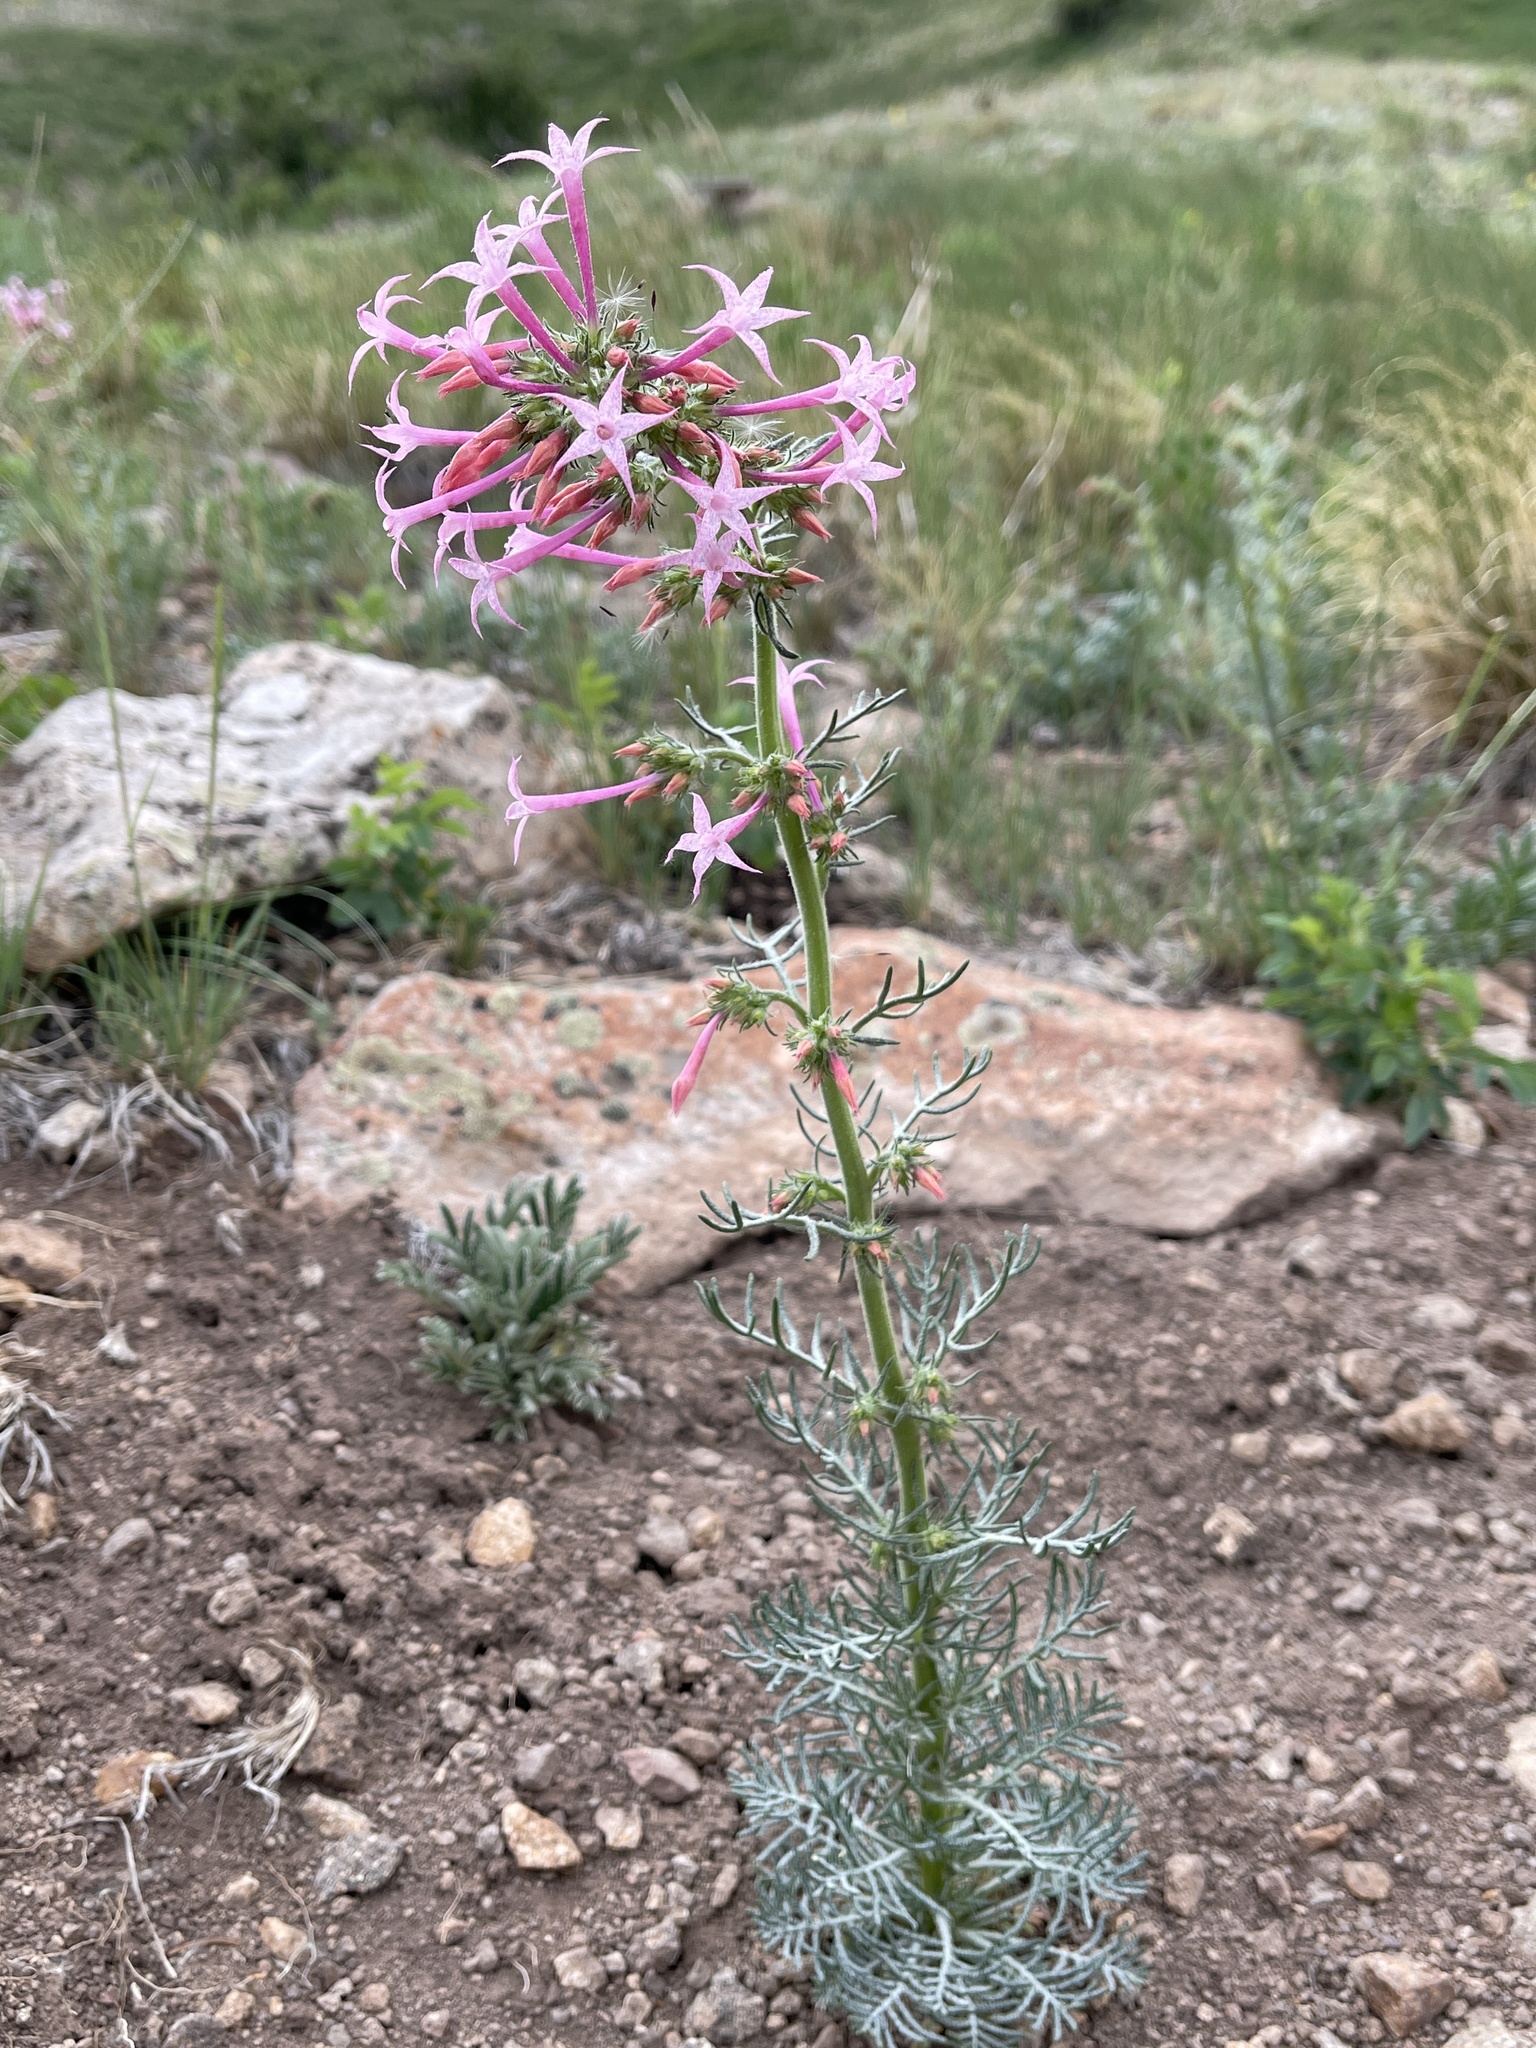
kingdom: Plantae
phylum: Tracheophyta
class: Magnoliopsida
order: Ericales
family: Polemoniaceae
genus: Ipomopsis
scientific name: Ipomopsis tenuituba
